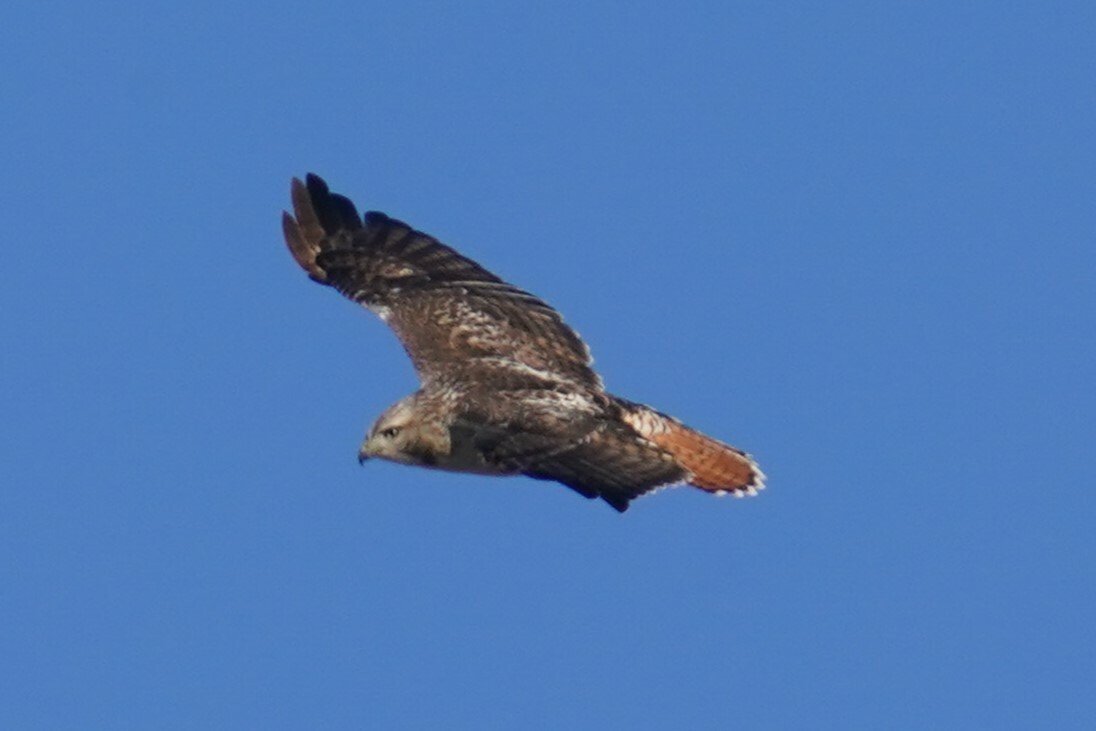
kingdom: Animalia
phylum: Chordata
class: Aves
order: Accipitriformes
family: Accipitridae
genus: Buteo
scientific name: Buteo jamaicensis
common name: Red-tailed hawk
